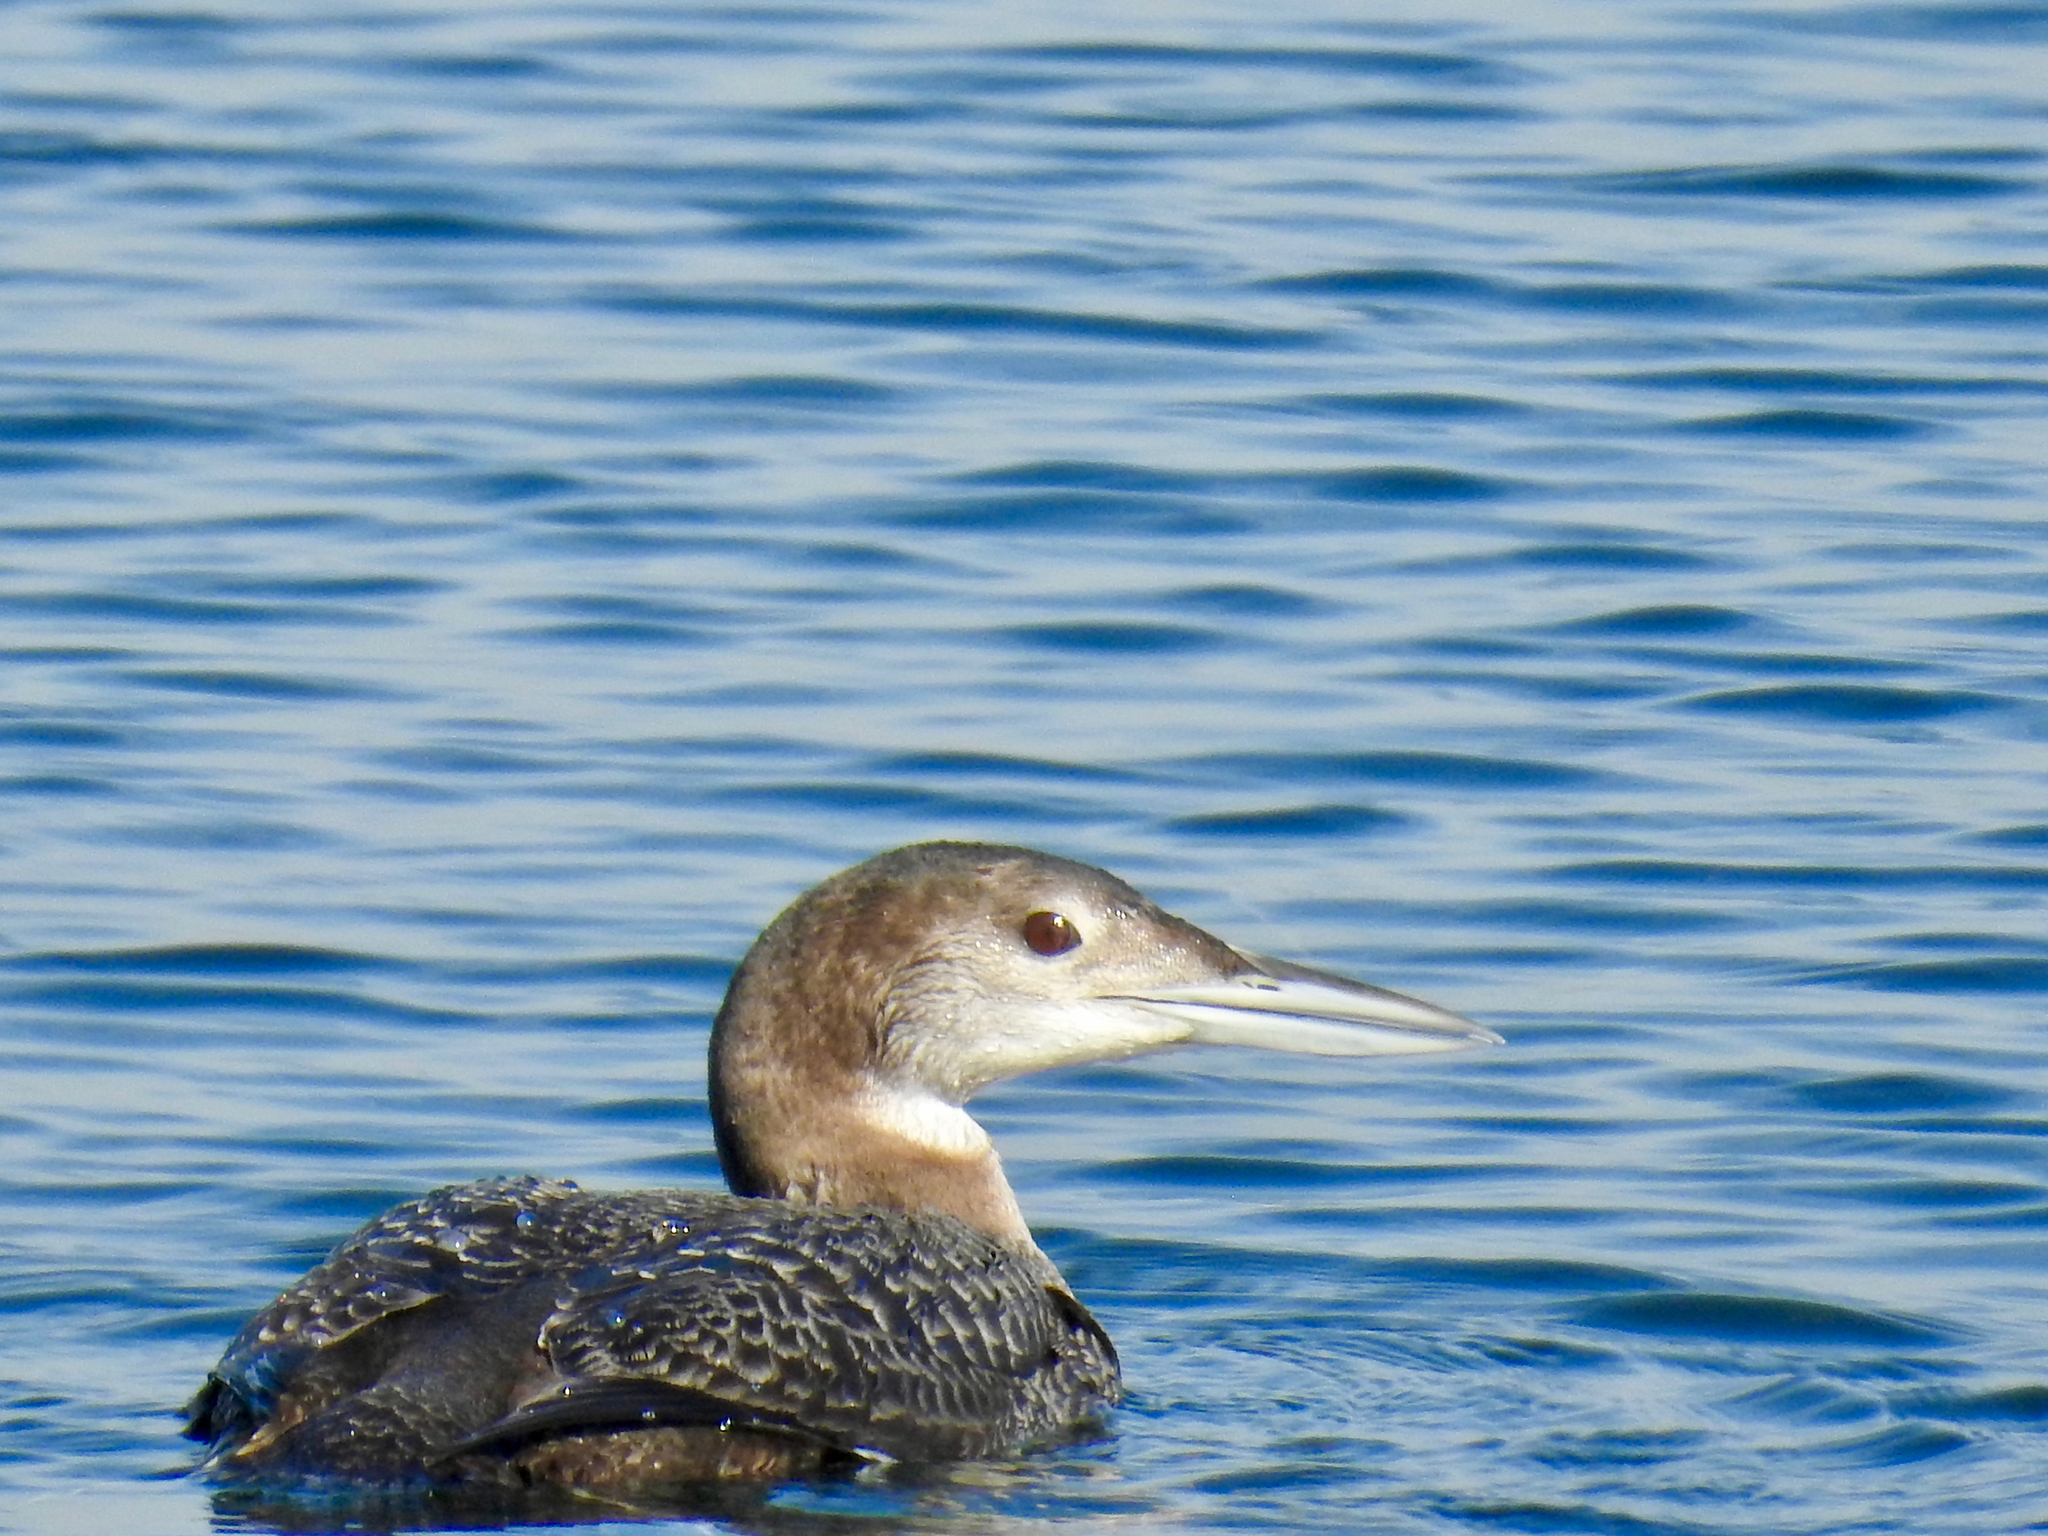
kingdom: Animalia
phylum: Chordata
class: Aves
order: Gaviiformes
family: Gaviidae
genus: Gavia
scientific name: Gavia immer
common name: Common loon
